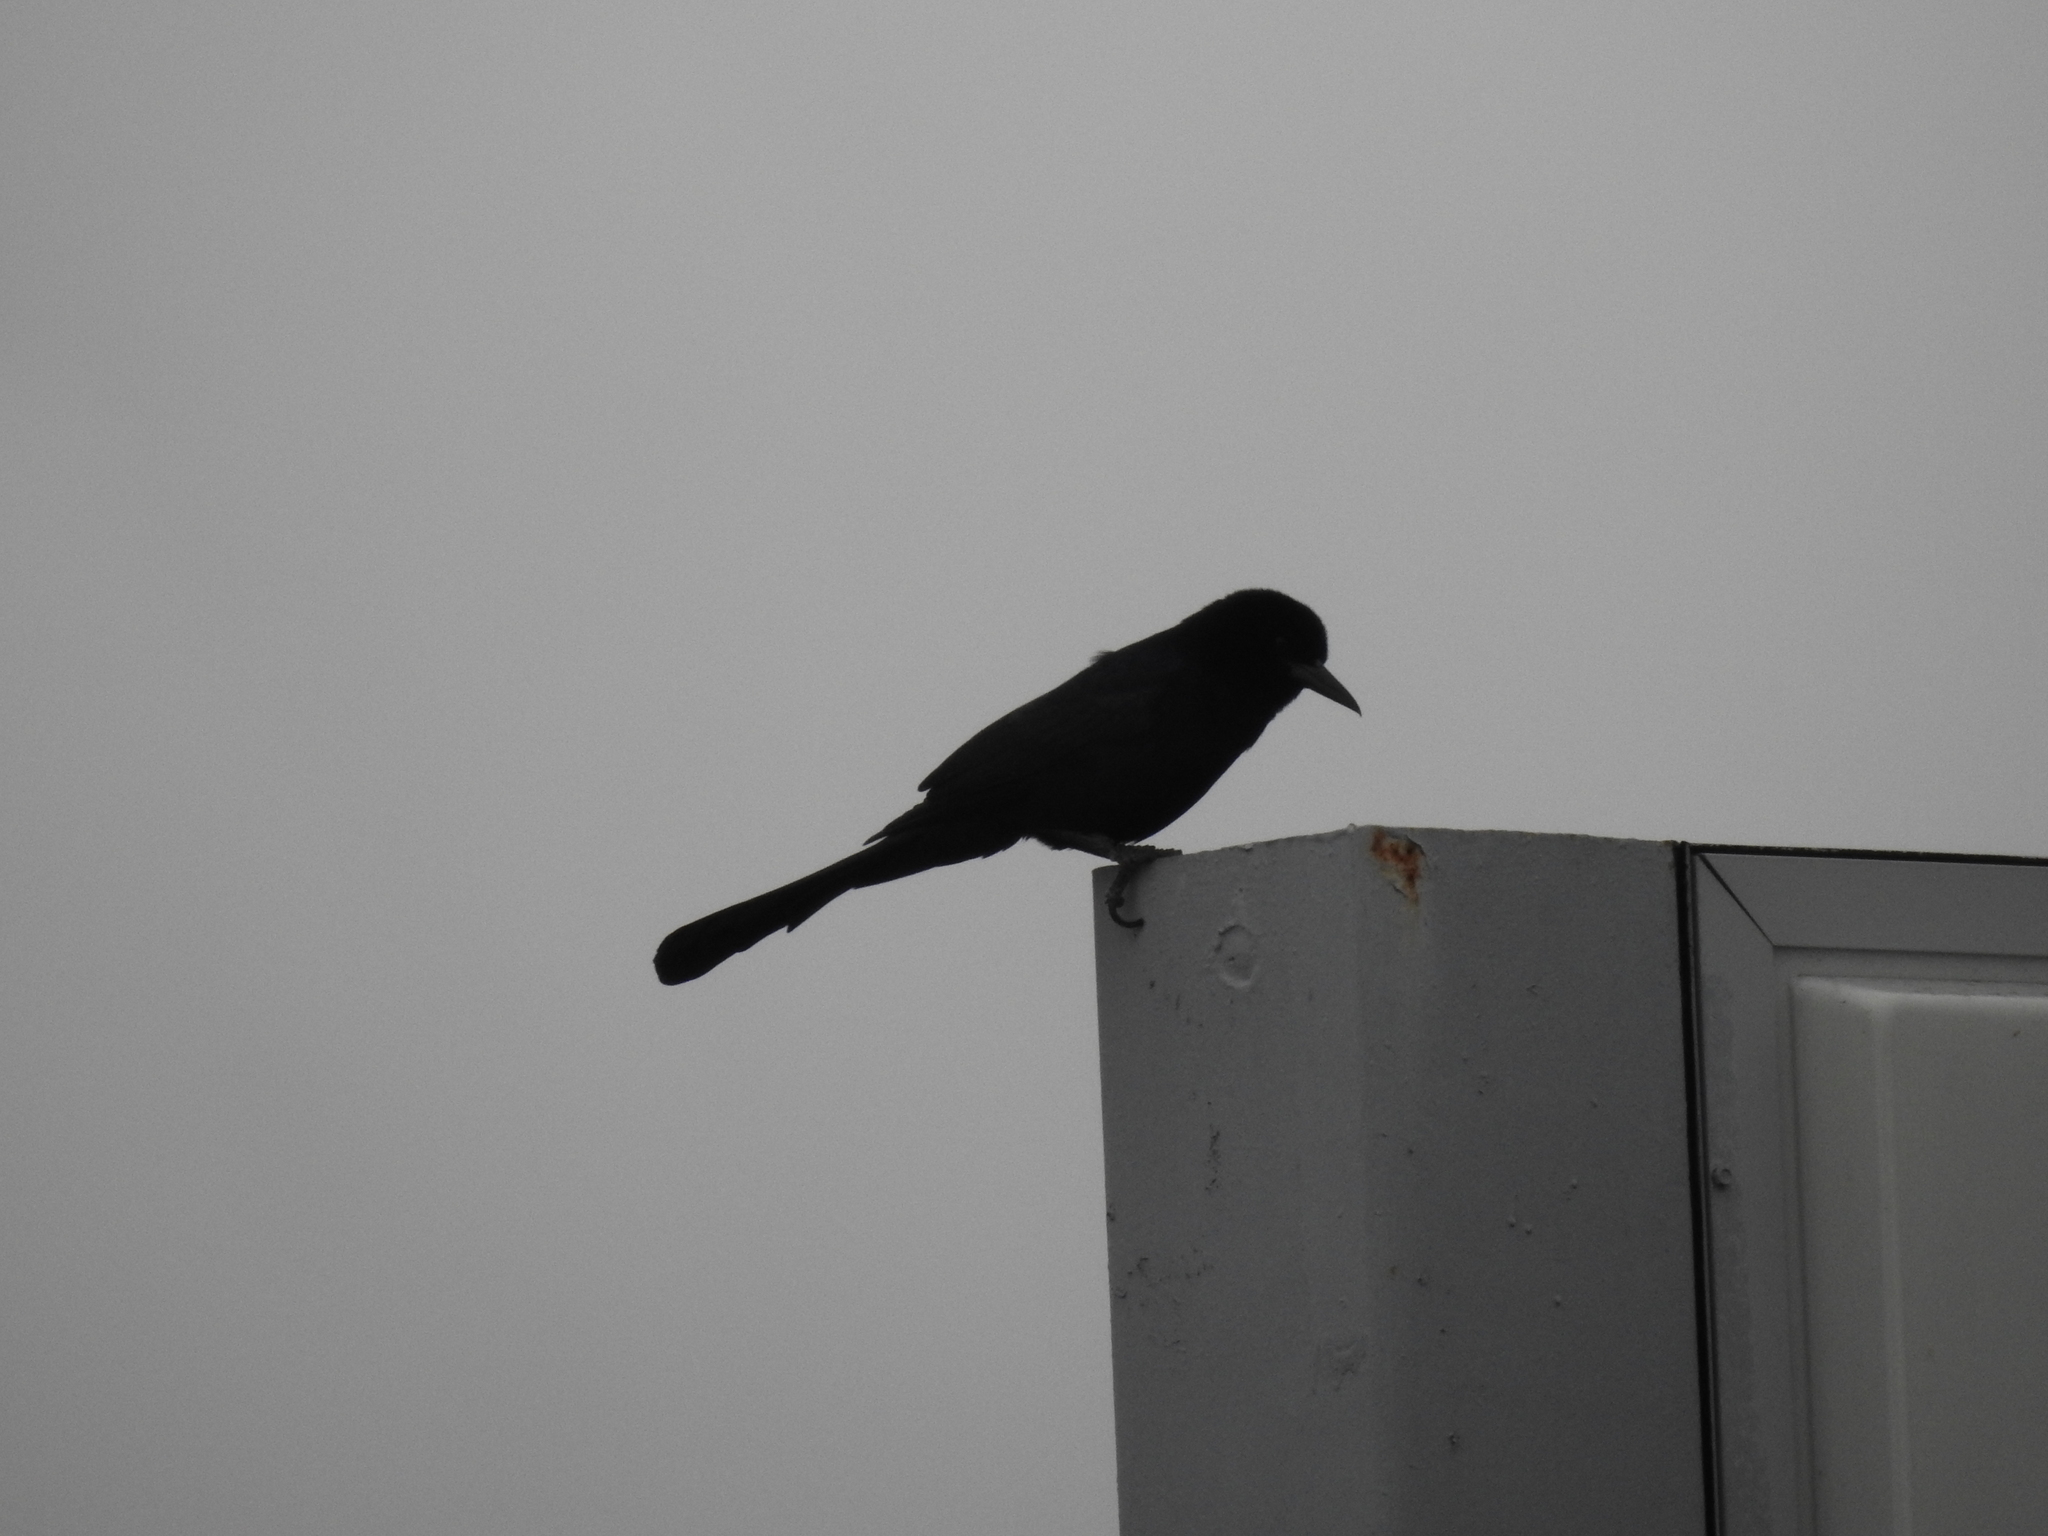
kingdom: Animalia
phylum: Chordata
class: Aves
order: Passeriformes
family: Icteridae
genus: Quiscalus
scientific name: Quiscalus major
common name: Boat-tailed grackle
